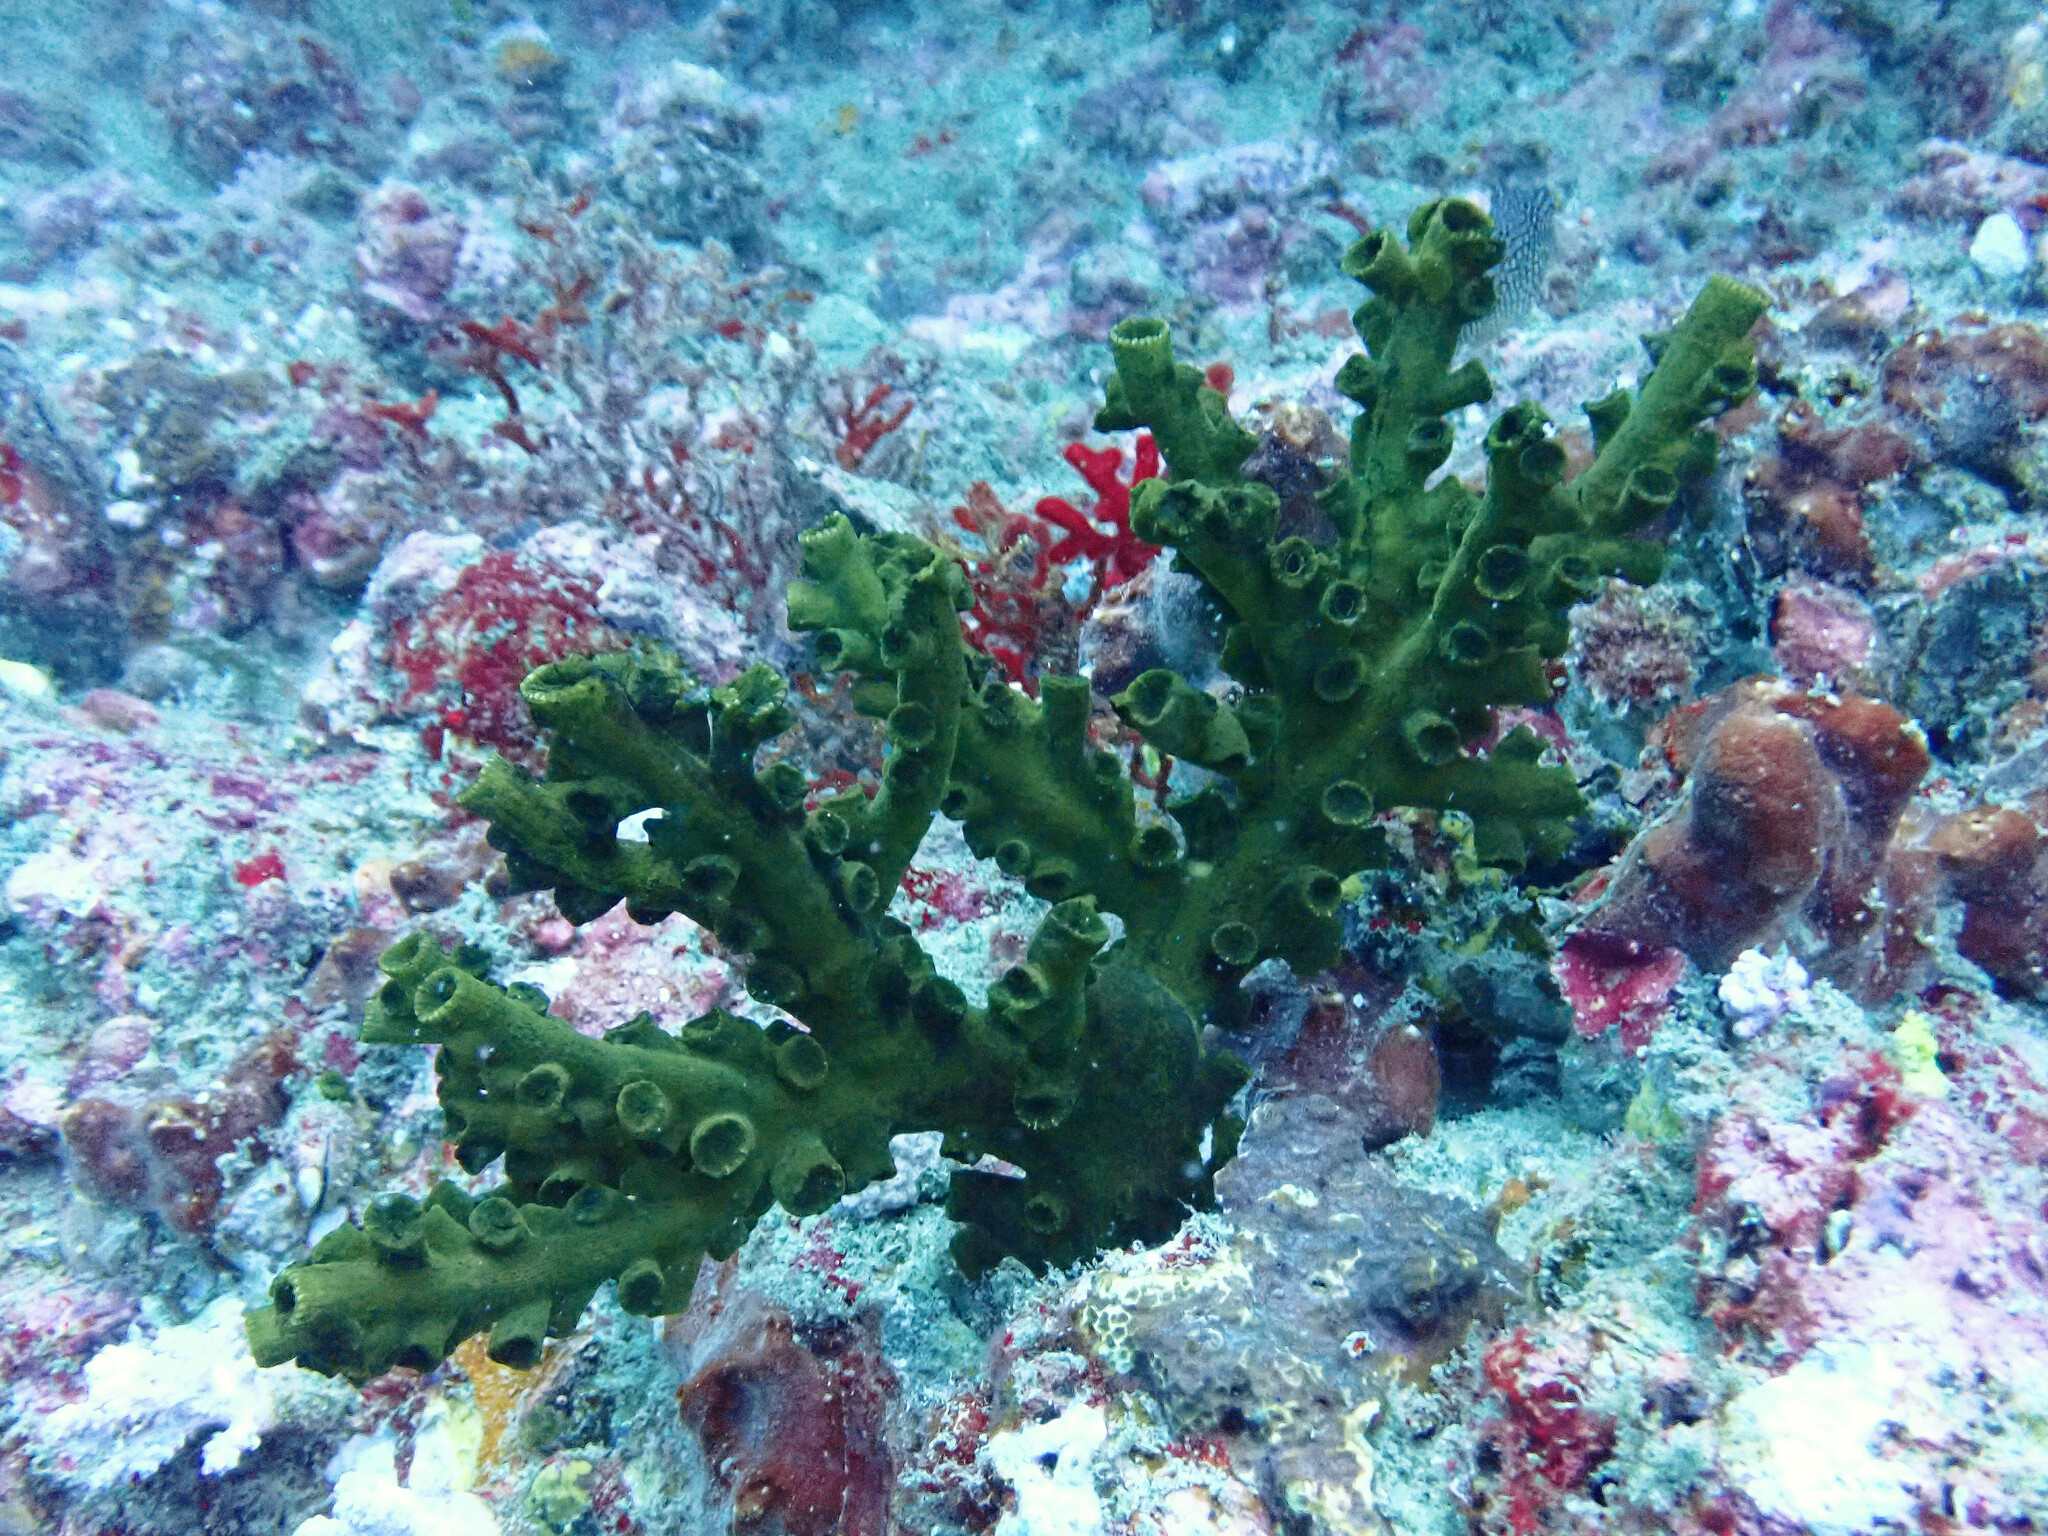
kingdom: Animalia
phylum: Cnidaria
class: Anthozoa
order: Scleractinia
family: Dendrophylliidae
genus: Tubastraea
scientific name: Tubastraea micranthus
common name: Black sun coral
